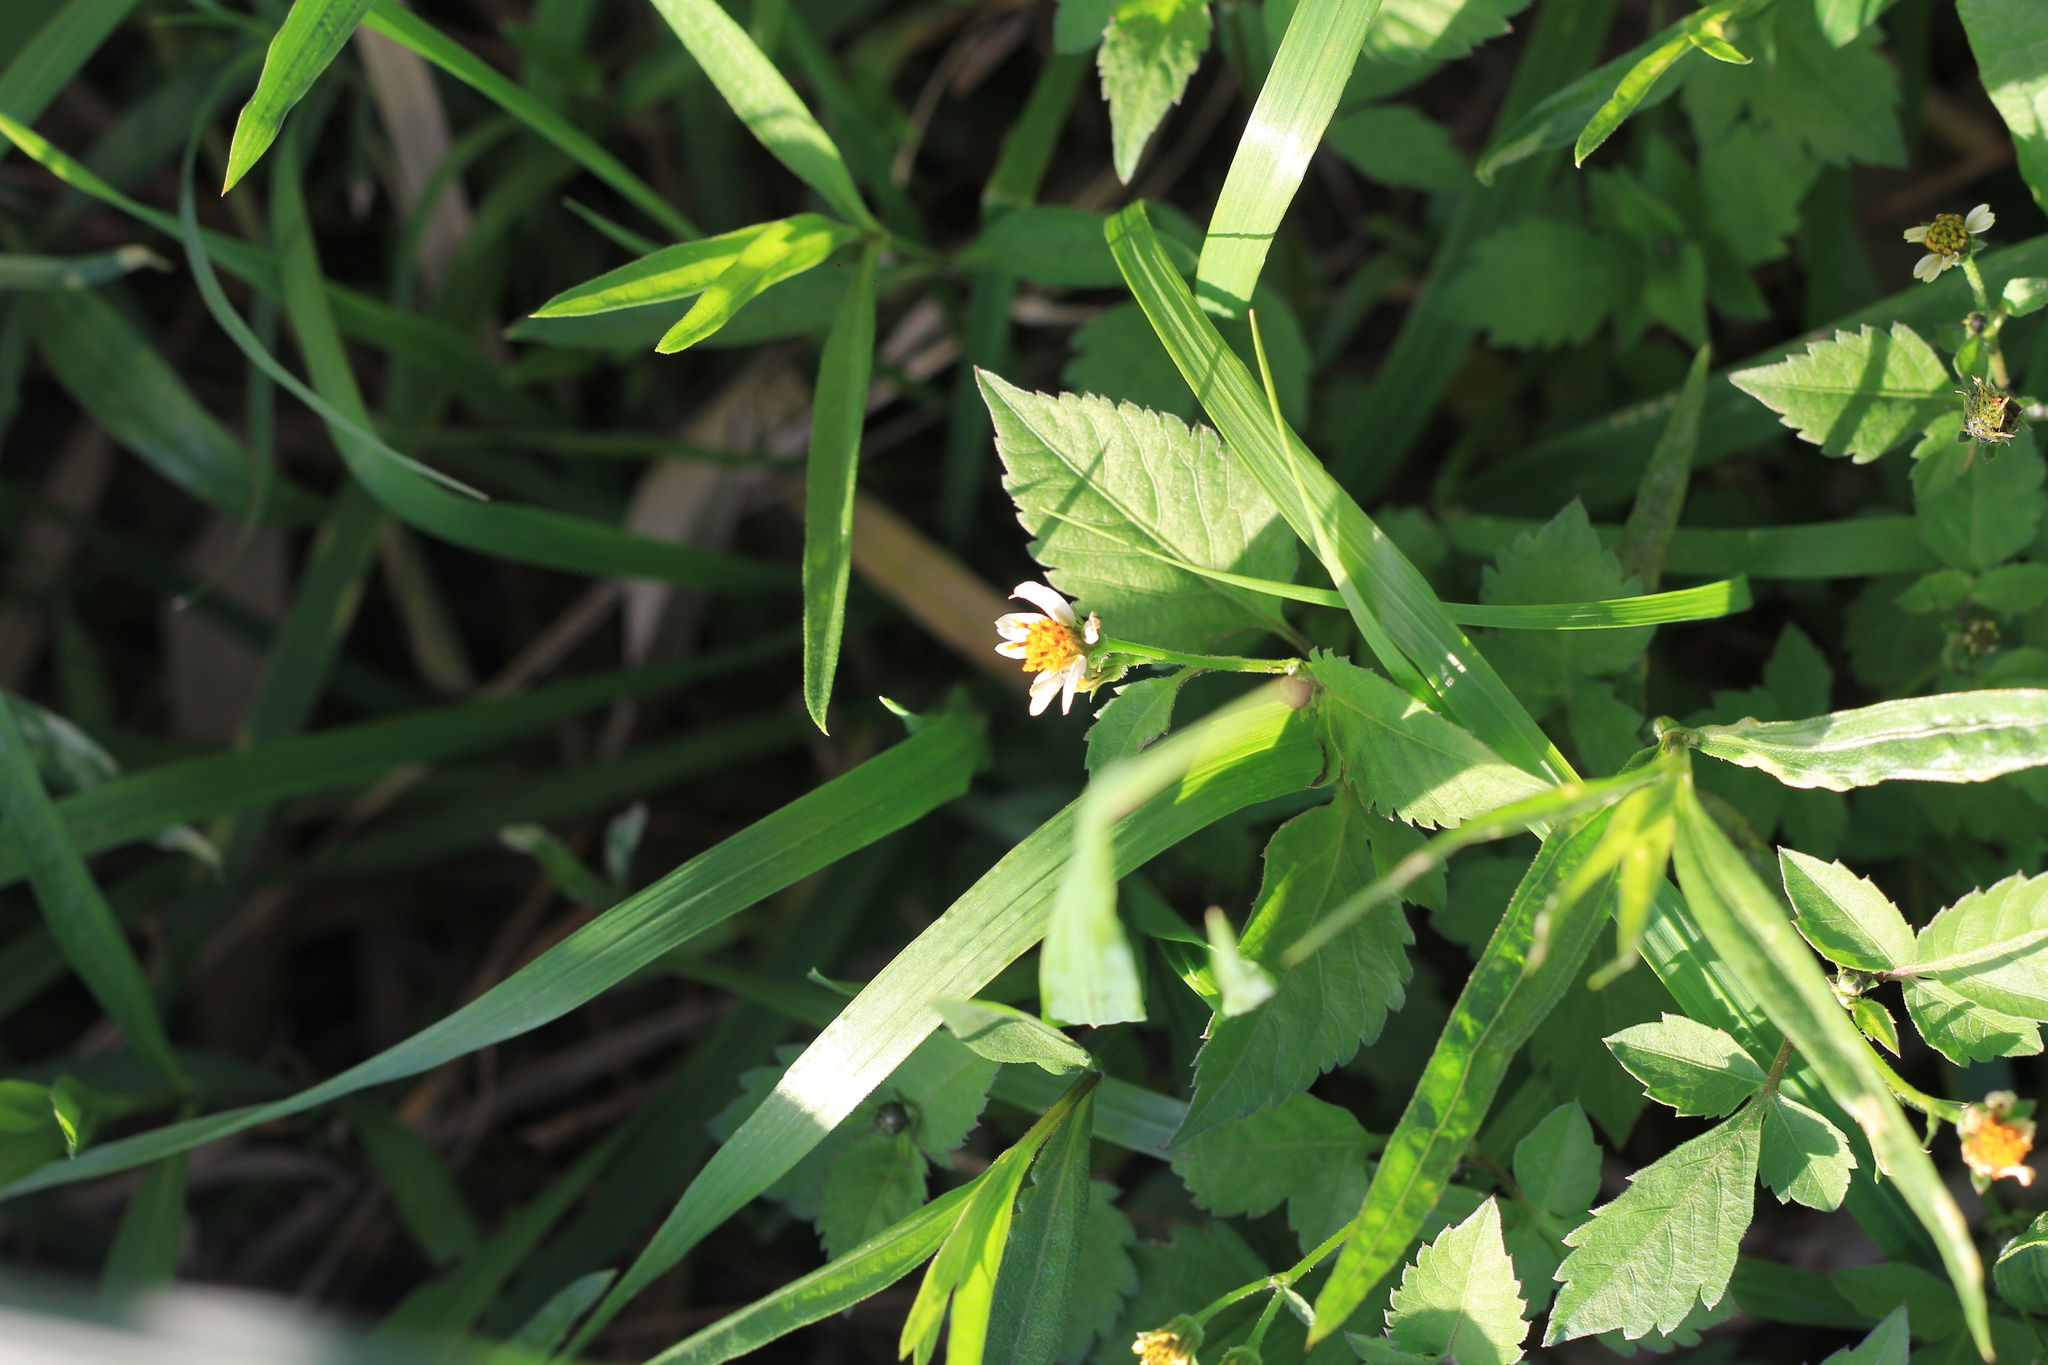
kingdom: Plantae
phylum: Tracheophyta
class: Magnoliopsida
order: Asterales
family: Asteraceae
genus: Bidens
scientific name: Bidens pilosa
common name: Black-jack
